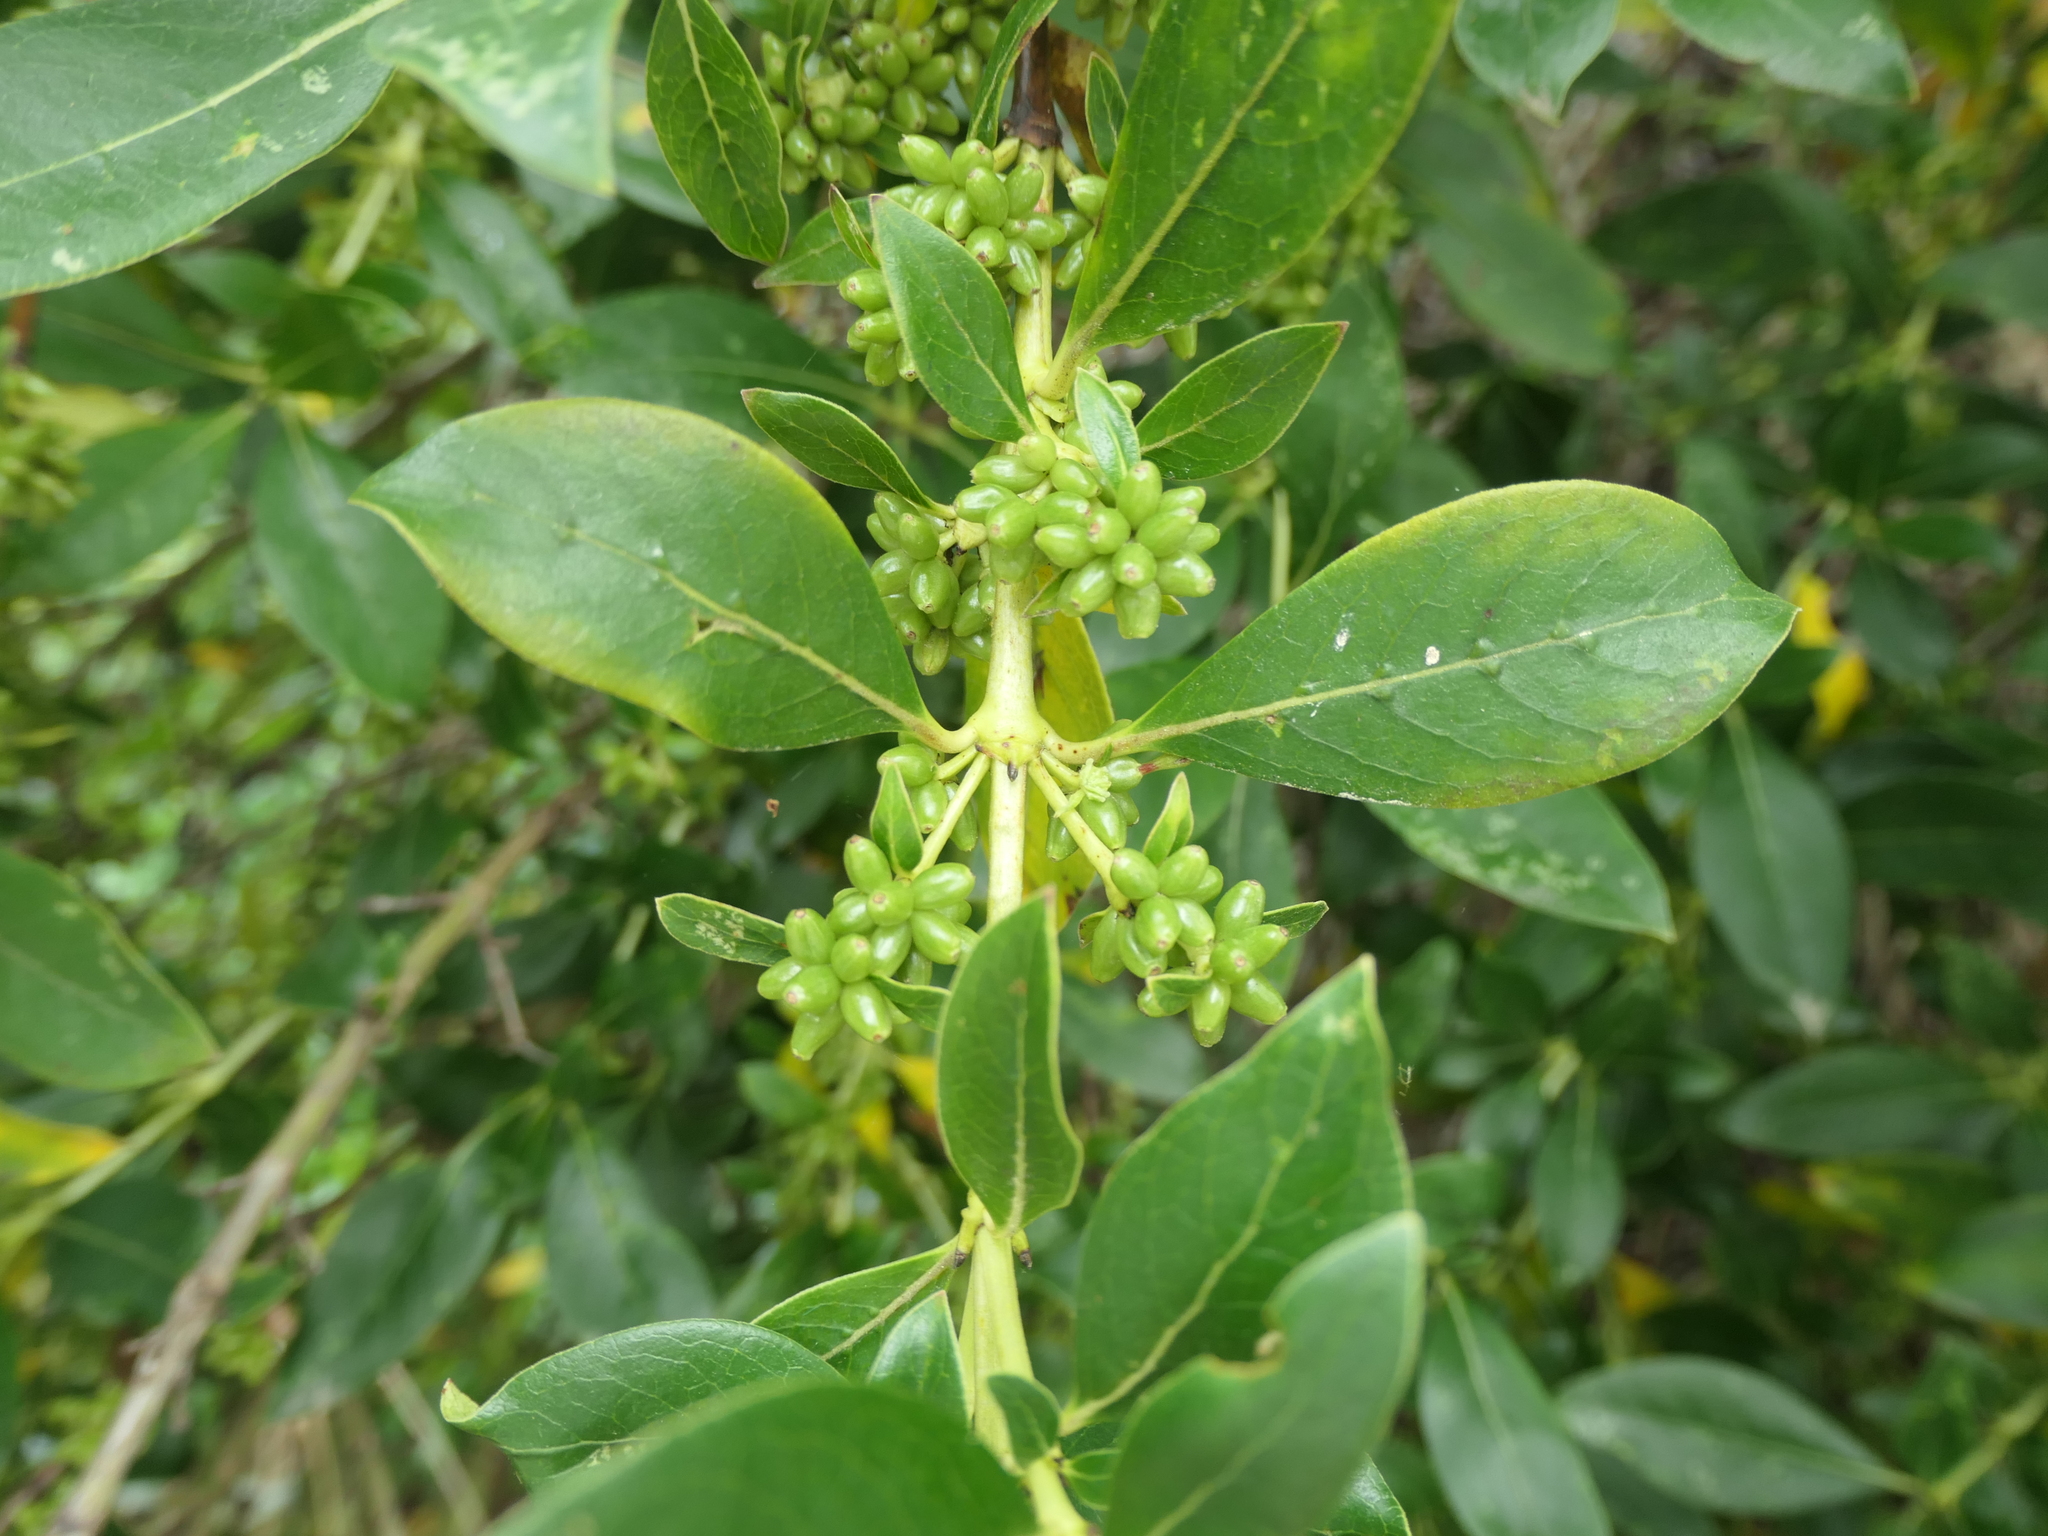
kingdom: Plantae
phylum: Tracheophyta
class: Magnoliopsida
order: Gentianales
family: Rubiaceae
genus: Coprosma
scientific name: Coprosma robusta
